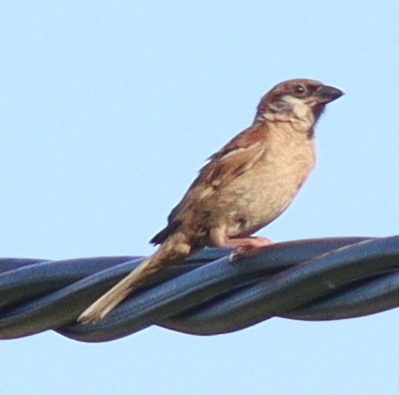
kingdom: Animalia
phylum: Chordata
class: Aves
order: Passeriformes
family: Passeridae
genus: Passer
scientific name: Passer montanus
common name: Eurasian tree sparrow
